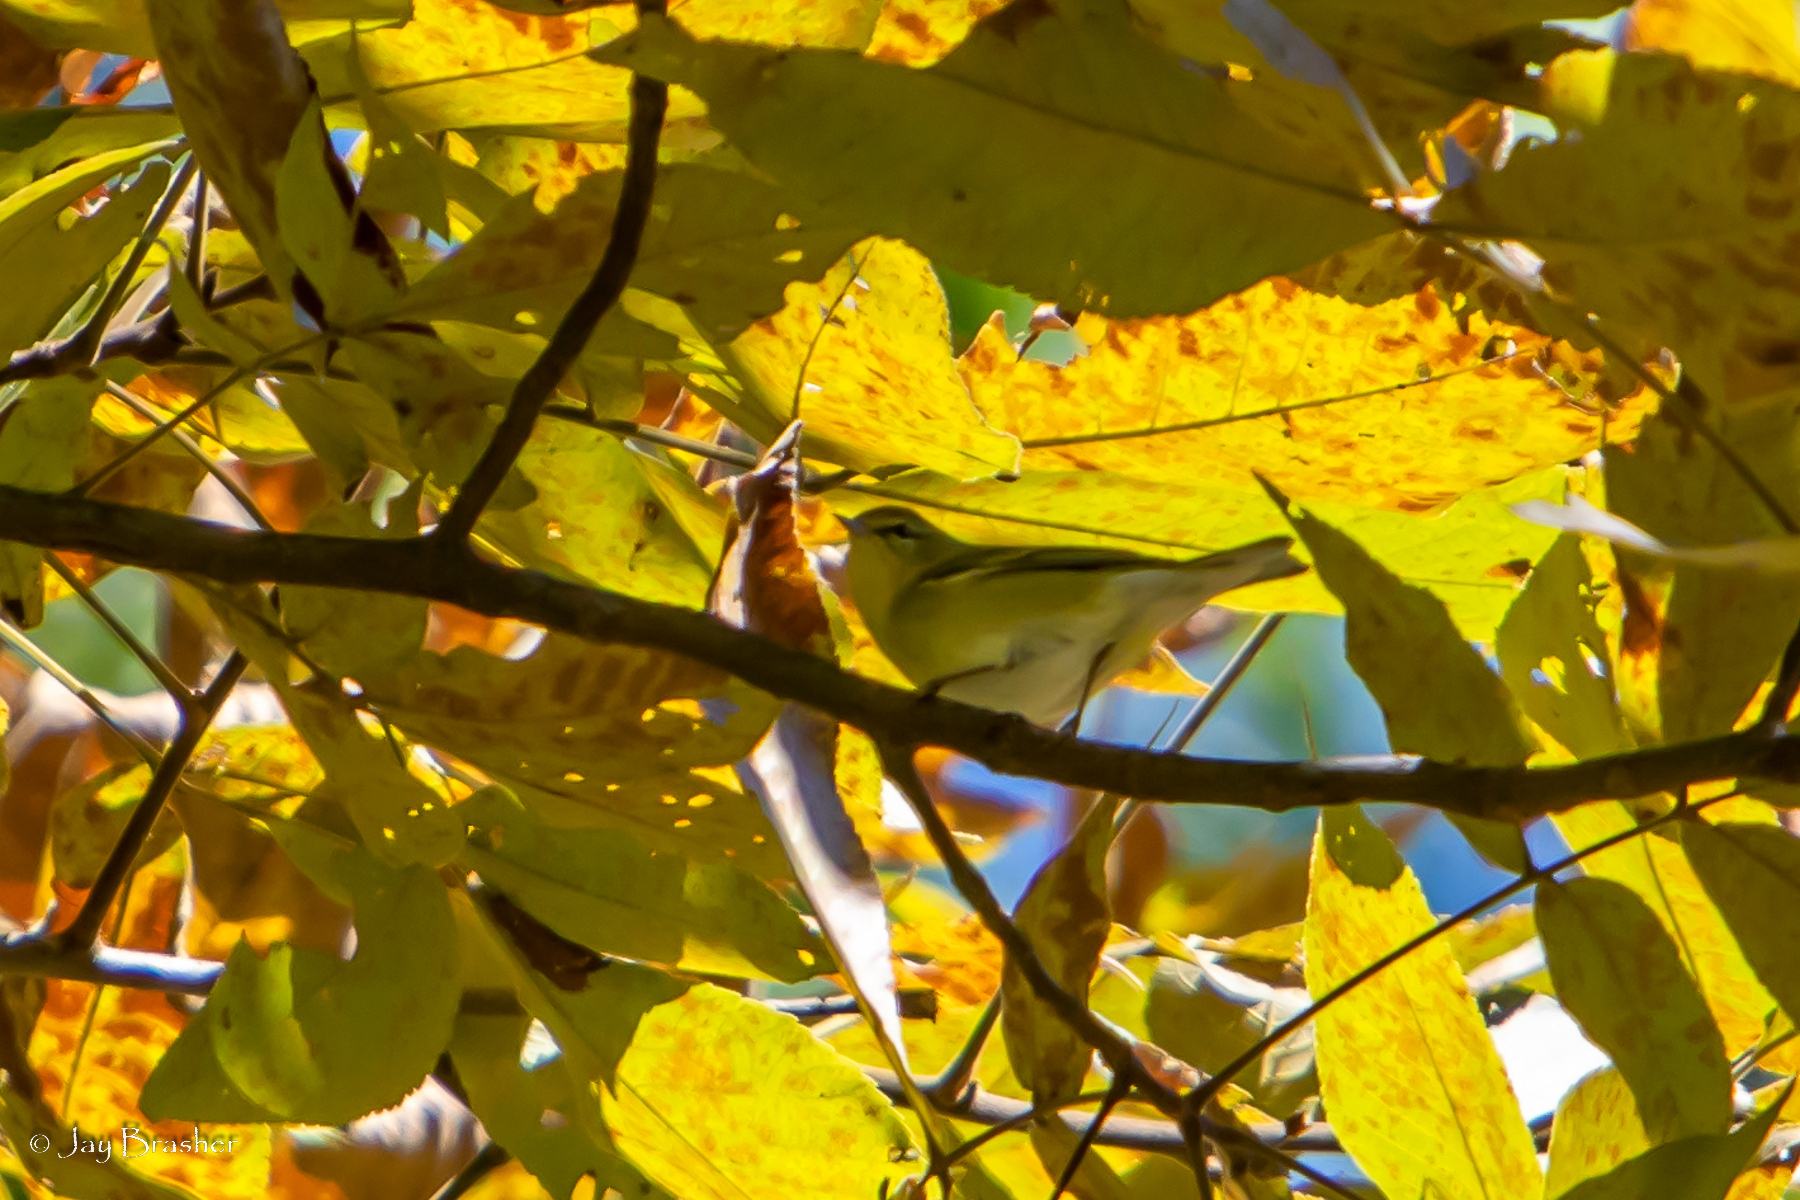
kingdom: Animalia
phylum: Chordata
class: Aves
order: Passeriformes
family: Parulidae
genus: Leiothlypis
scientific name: Leiothlypis peregrina
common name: Tennessee warbler
